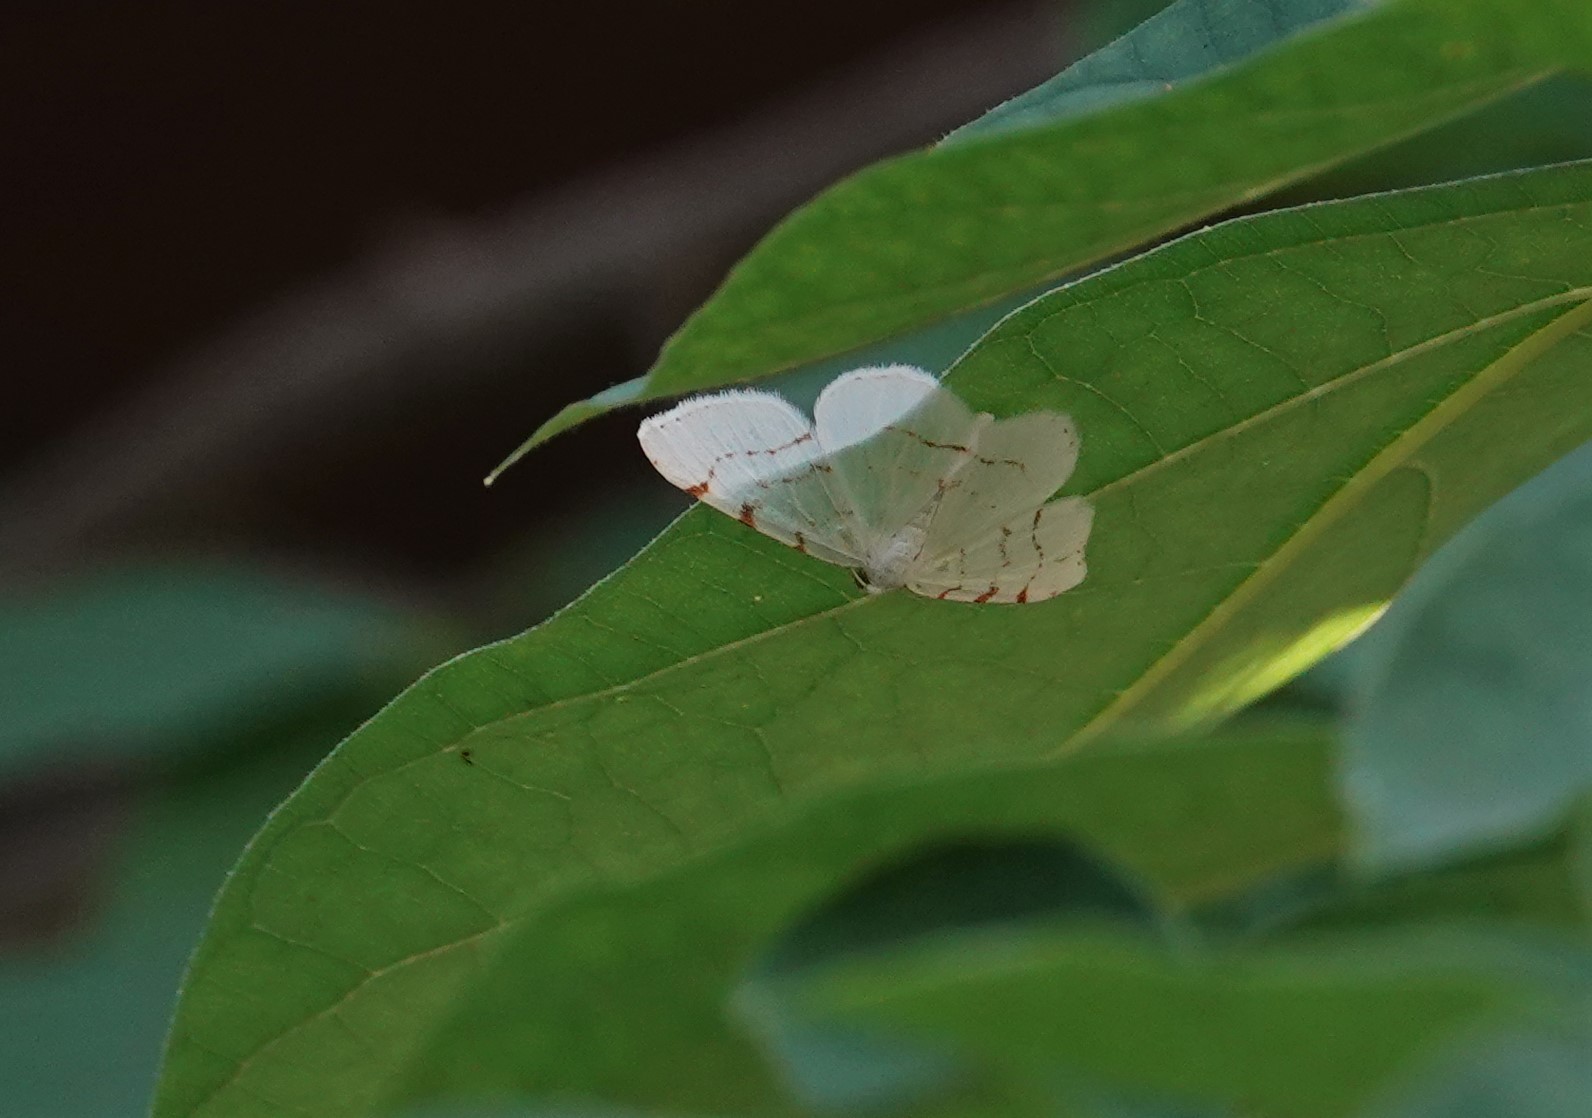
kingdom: Animalia
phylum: Arthropoda
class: Insecta
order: Lepidoptera
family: Geometridae
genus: Macaria
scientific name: Macaria pustularia
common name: Lesser maple spanworm moth
